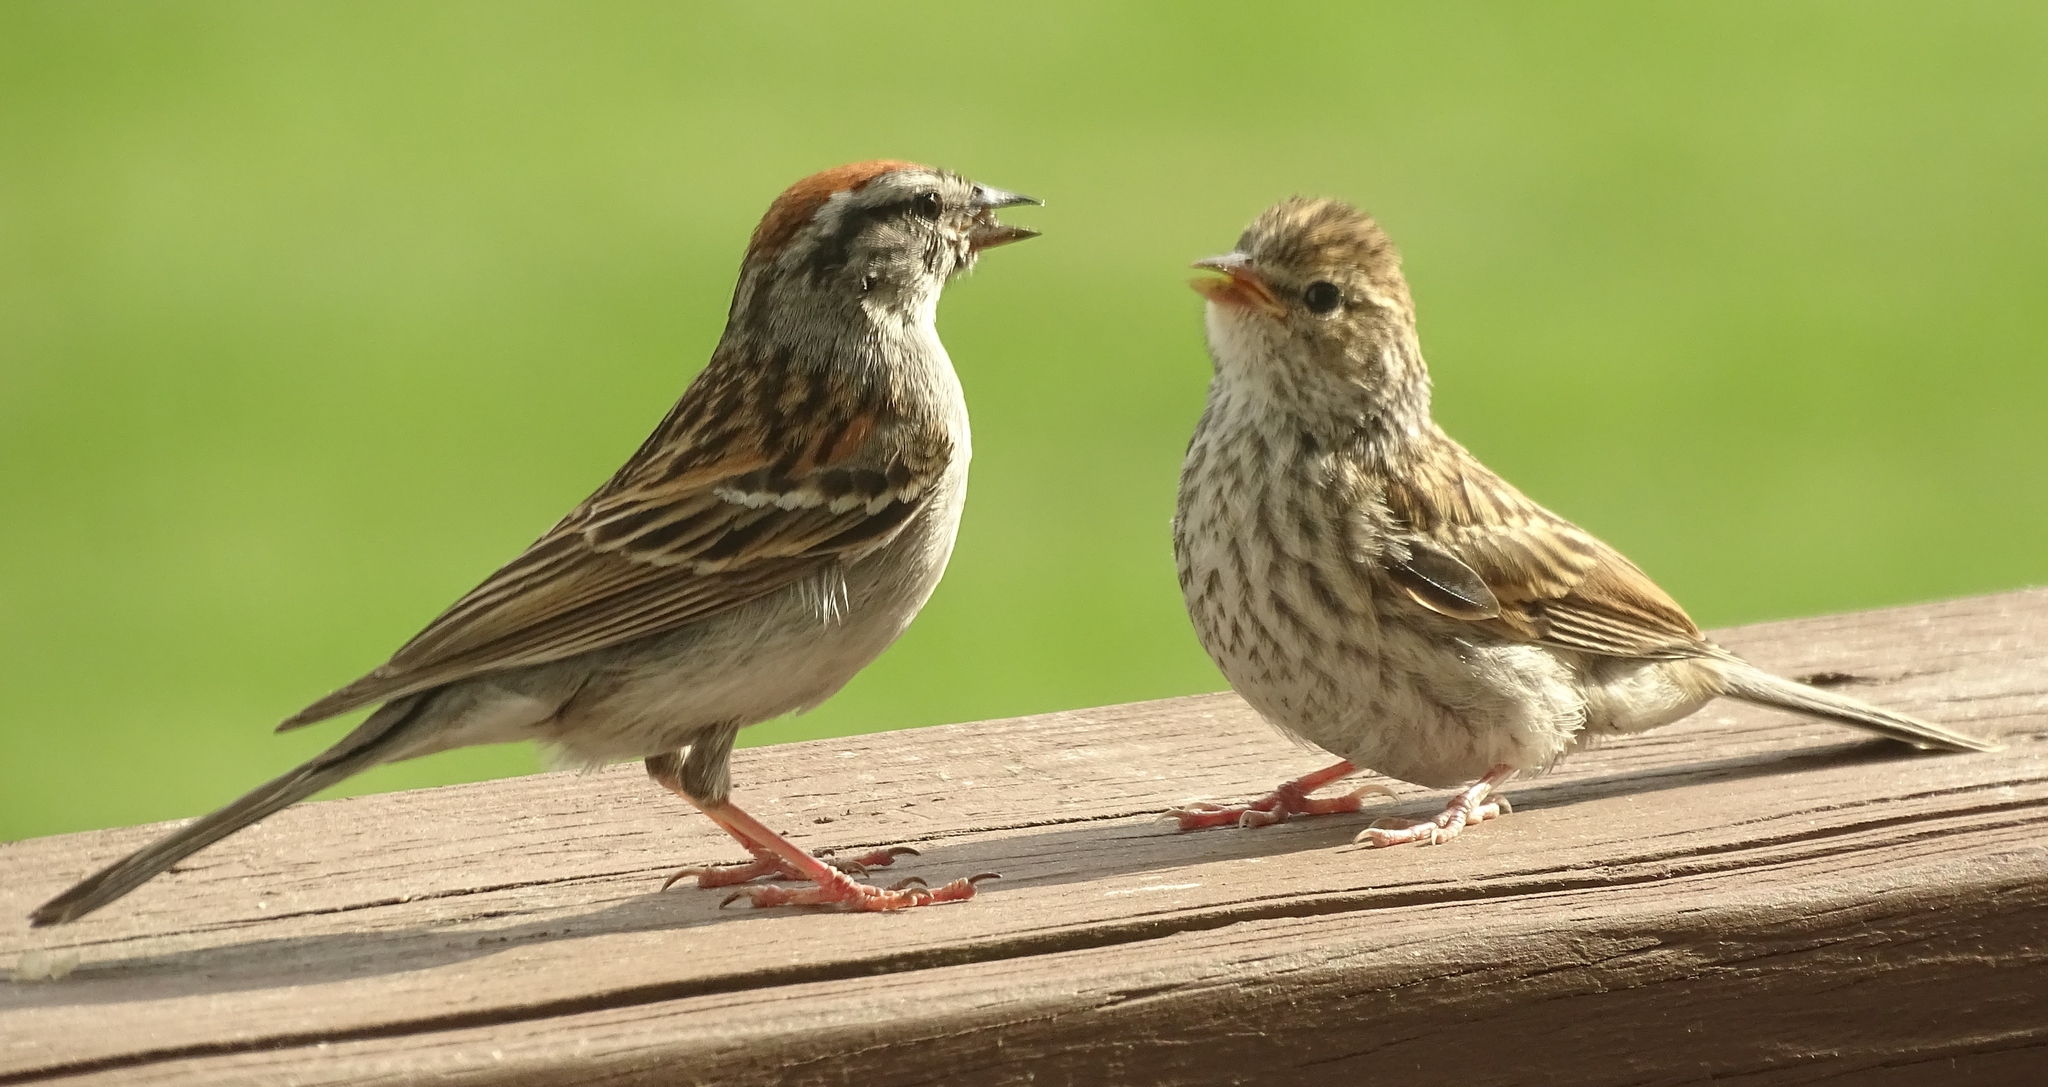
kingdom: Animalia
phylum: Chordata
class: Aves
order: Passeriformes
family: Passerellidae
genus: Spizella
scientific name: Spizella passerina
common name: Chipping sparrow
